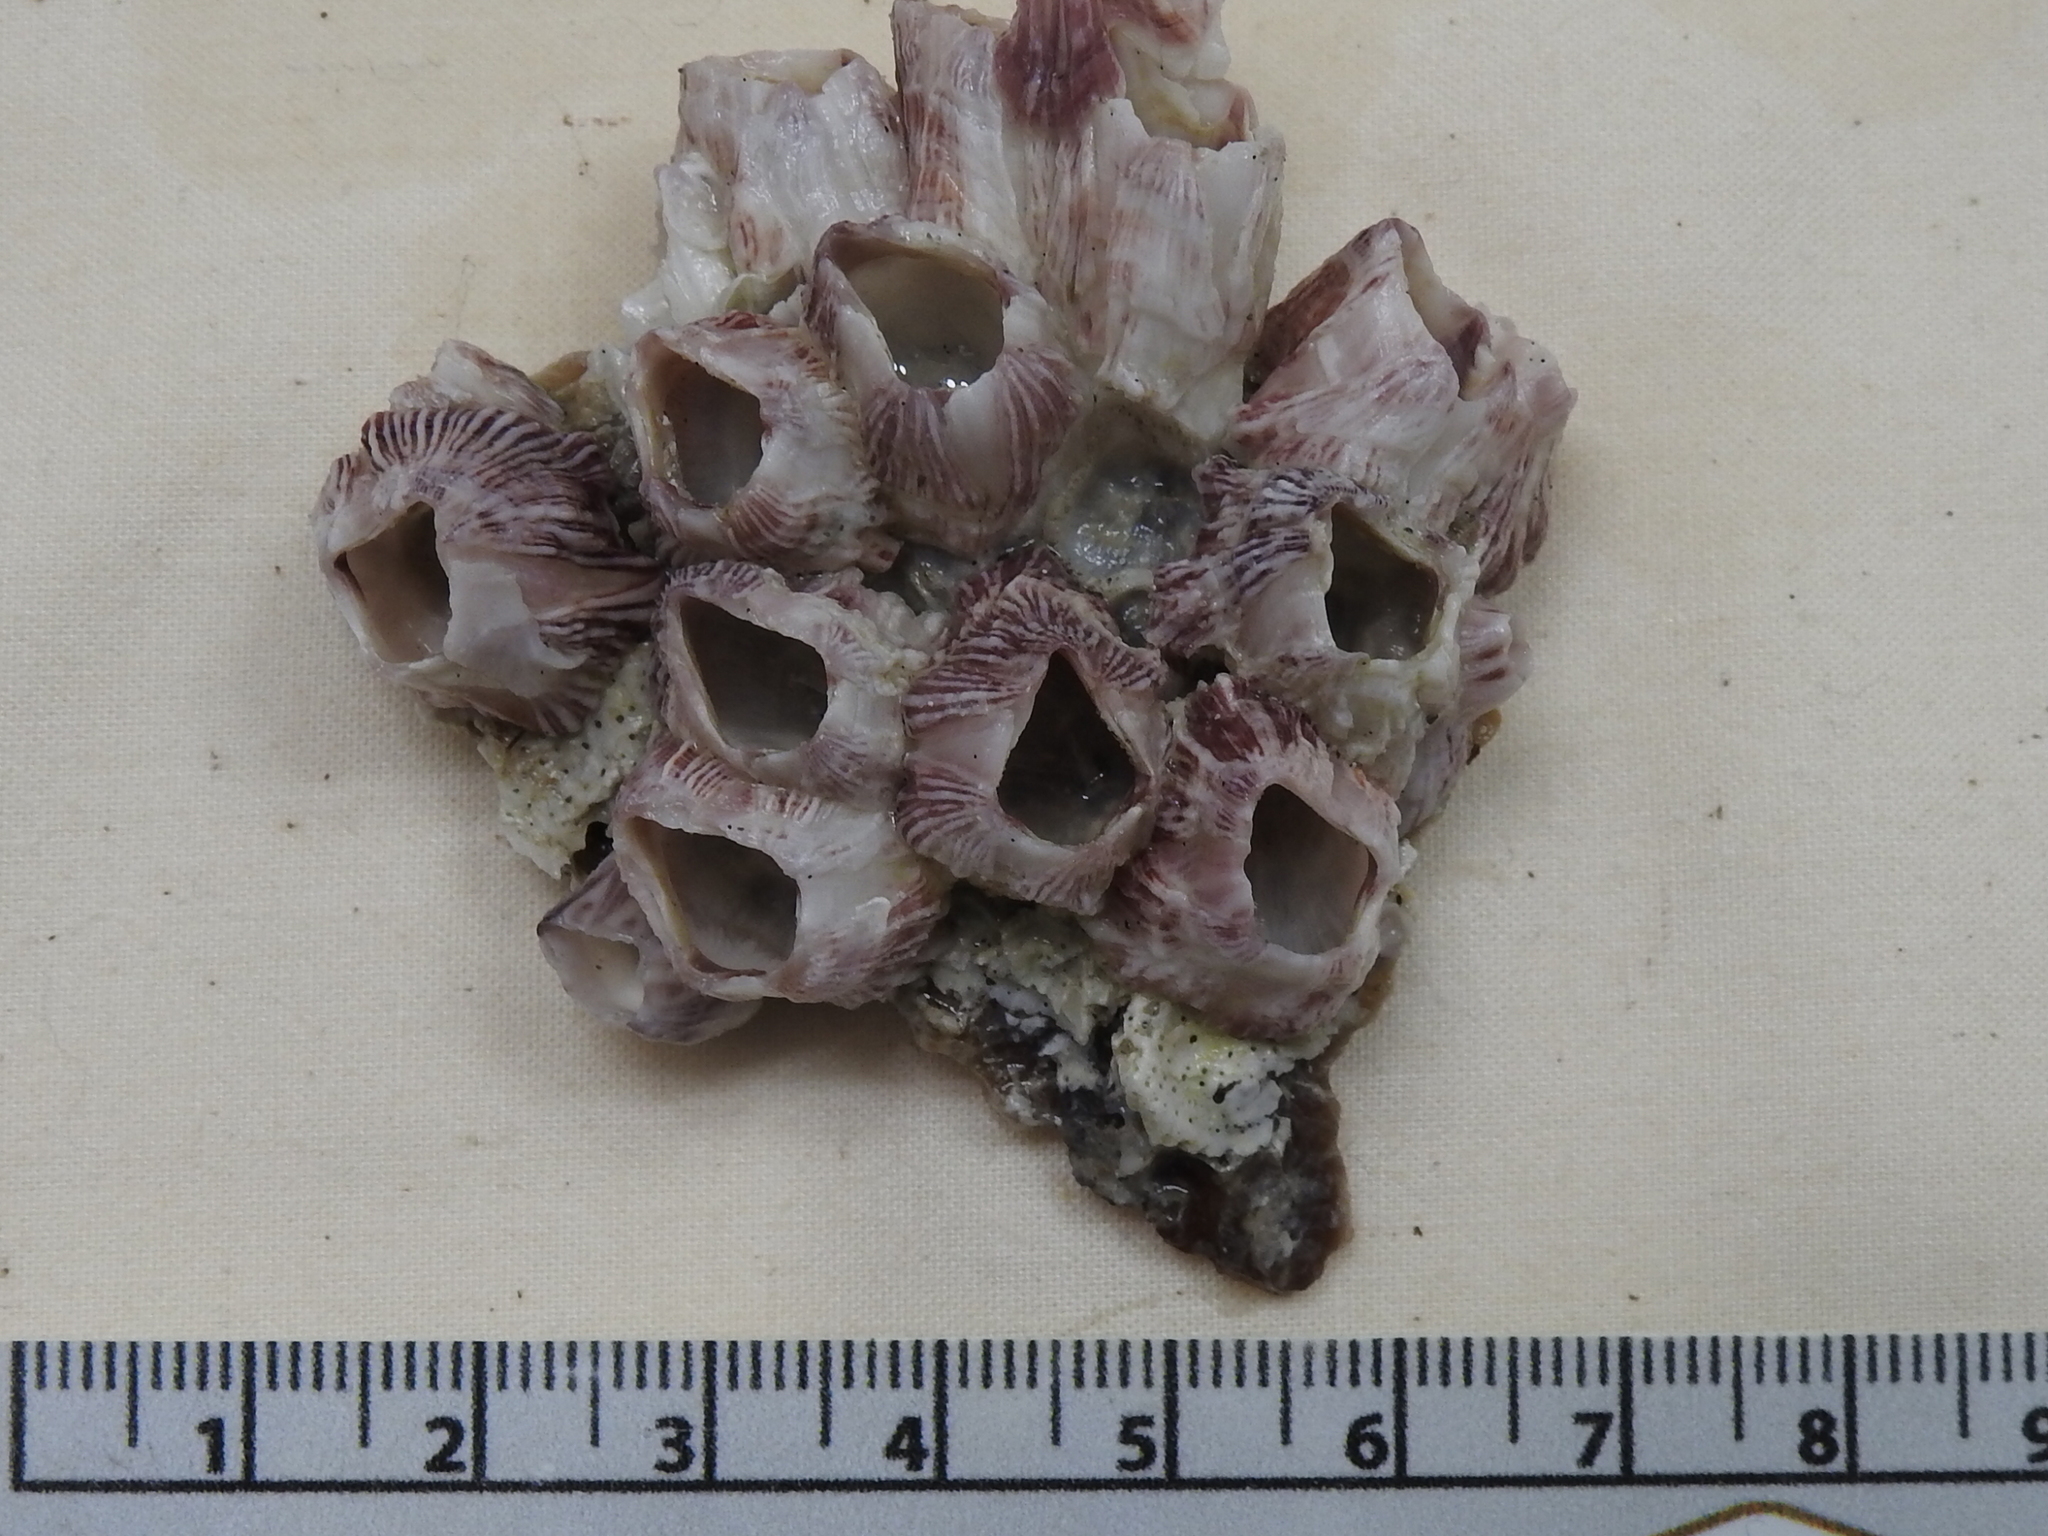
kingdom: Animalia
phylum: Arthropoda
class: Maxillopoda
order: Sessilia
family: Balanidae
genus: Balanus
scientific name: Balanus trigonus
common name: Triangle barnacle
